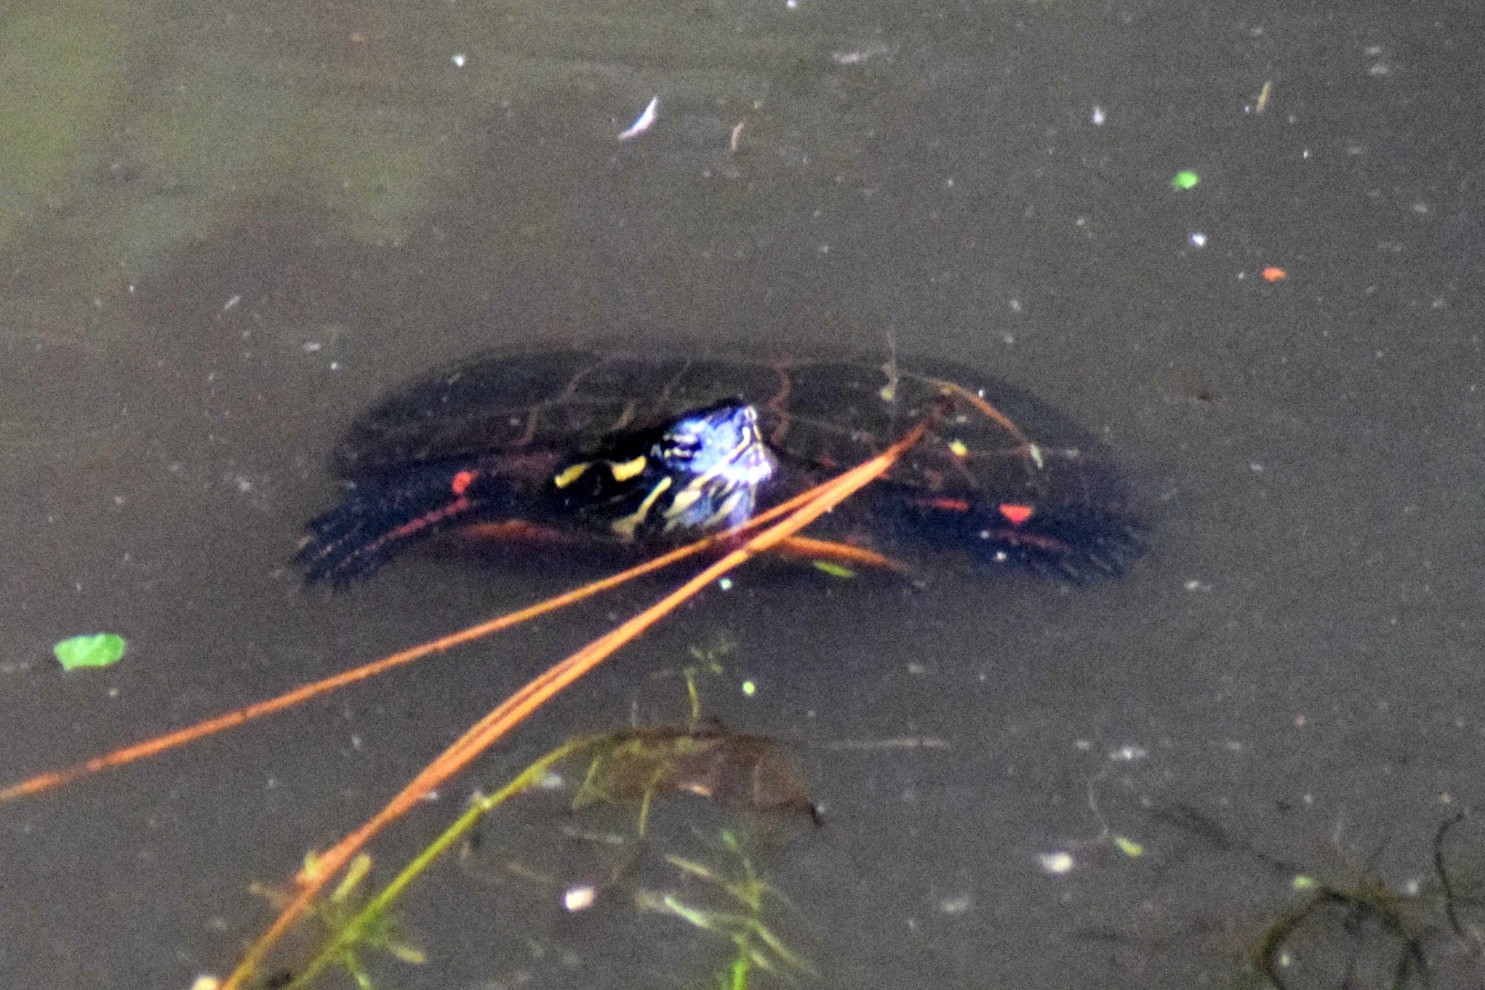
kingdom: Animalia
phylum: Chordata
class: Testudines
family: Emydidae
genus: Chrysemys
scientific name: Chrysemys picta
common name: Painted turtle
